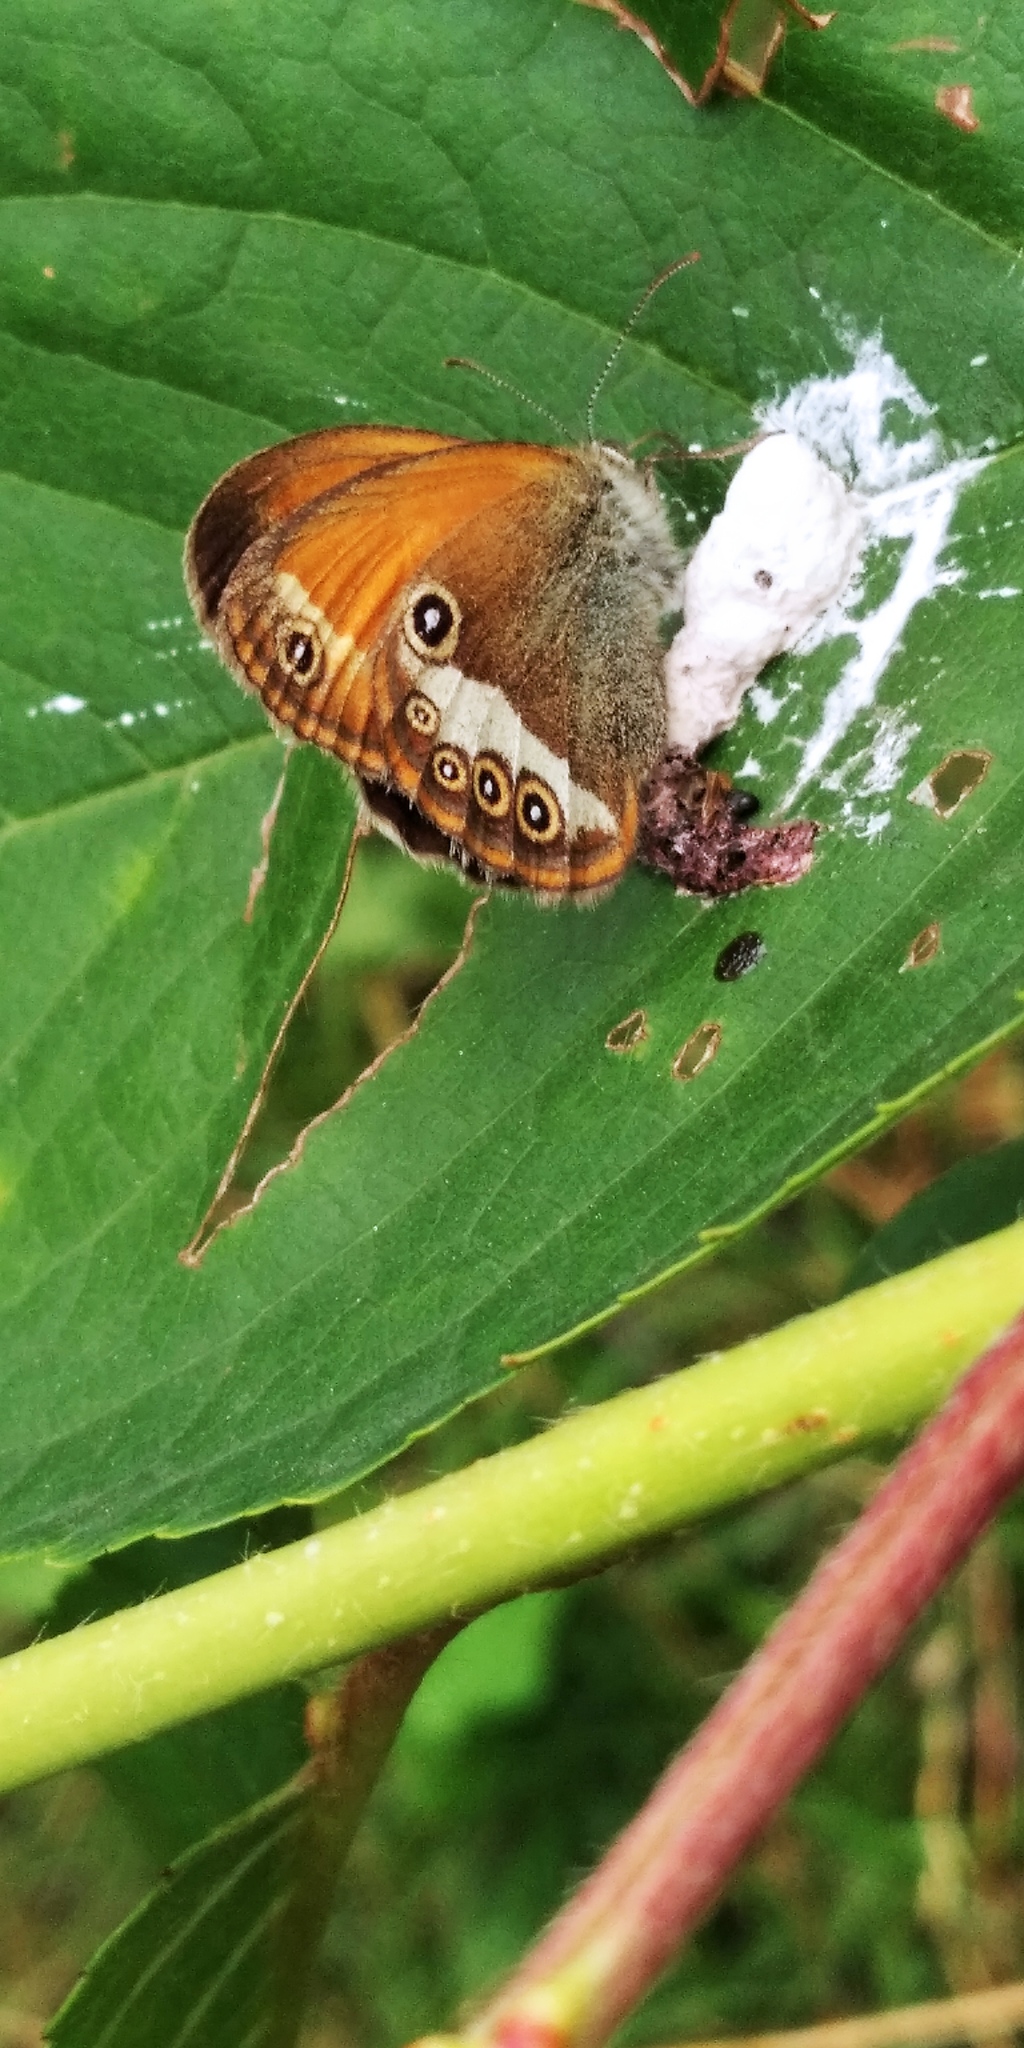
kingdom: Animalia
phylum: Arthropoda
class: Insecta
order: Lepidoptera
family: Nymphalidae
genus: Coenonympha
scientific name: Coenonympha arcania
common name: Pearly heath
